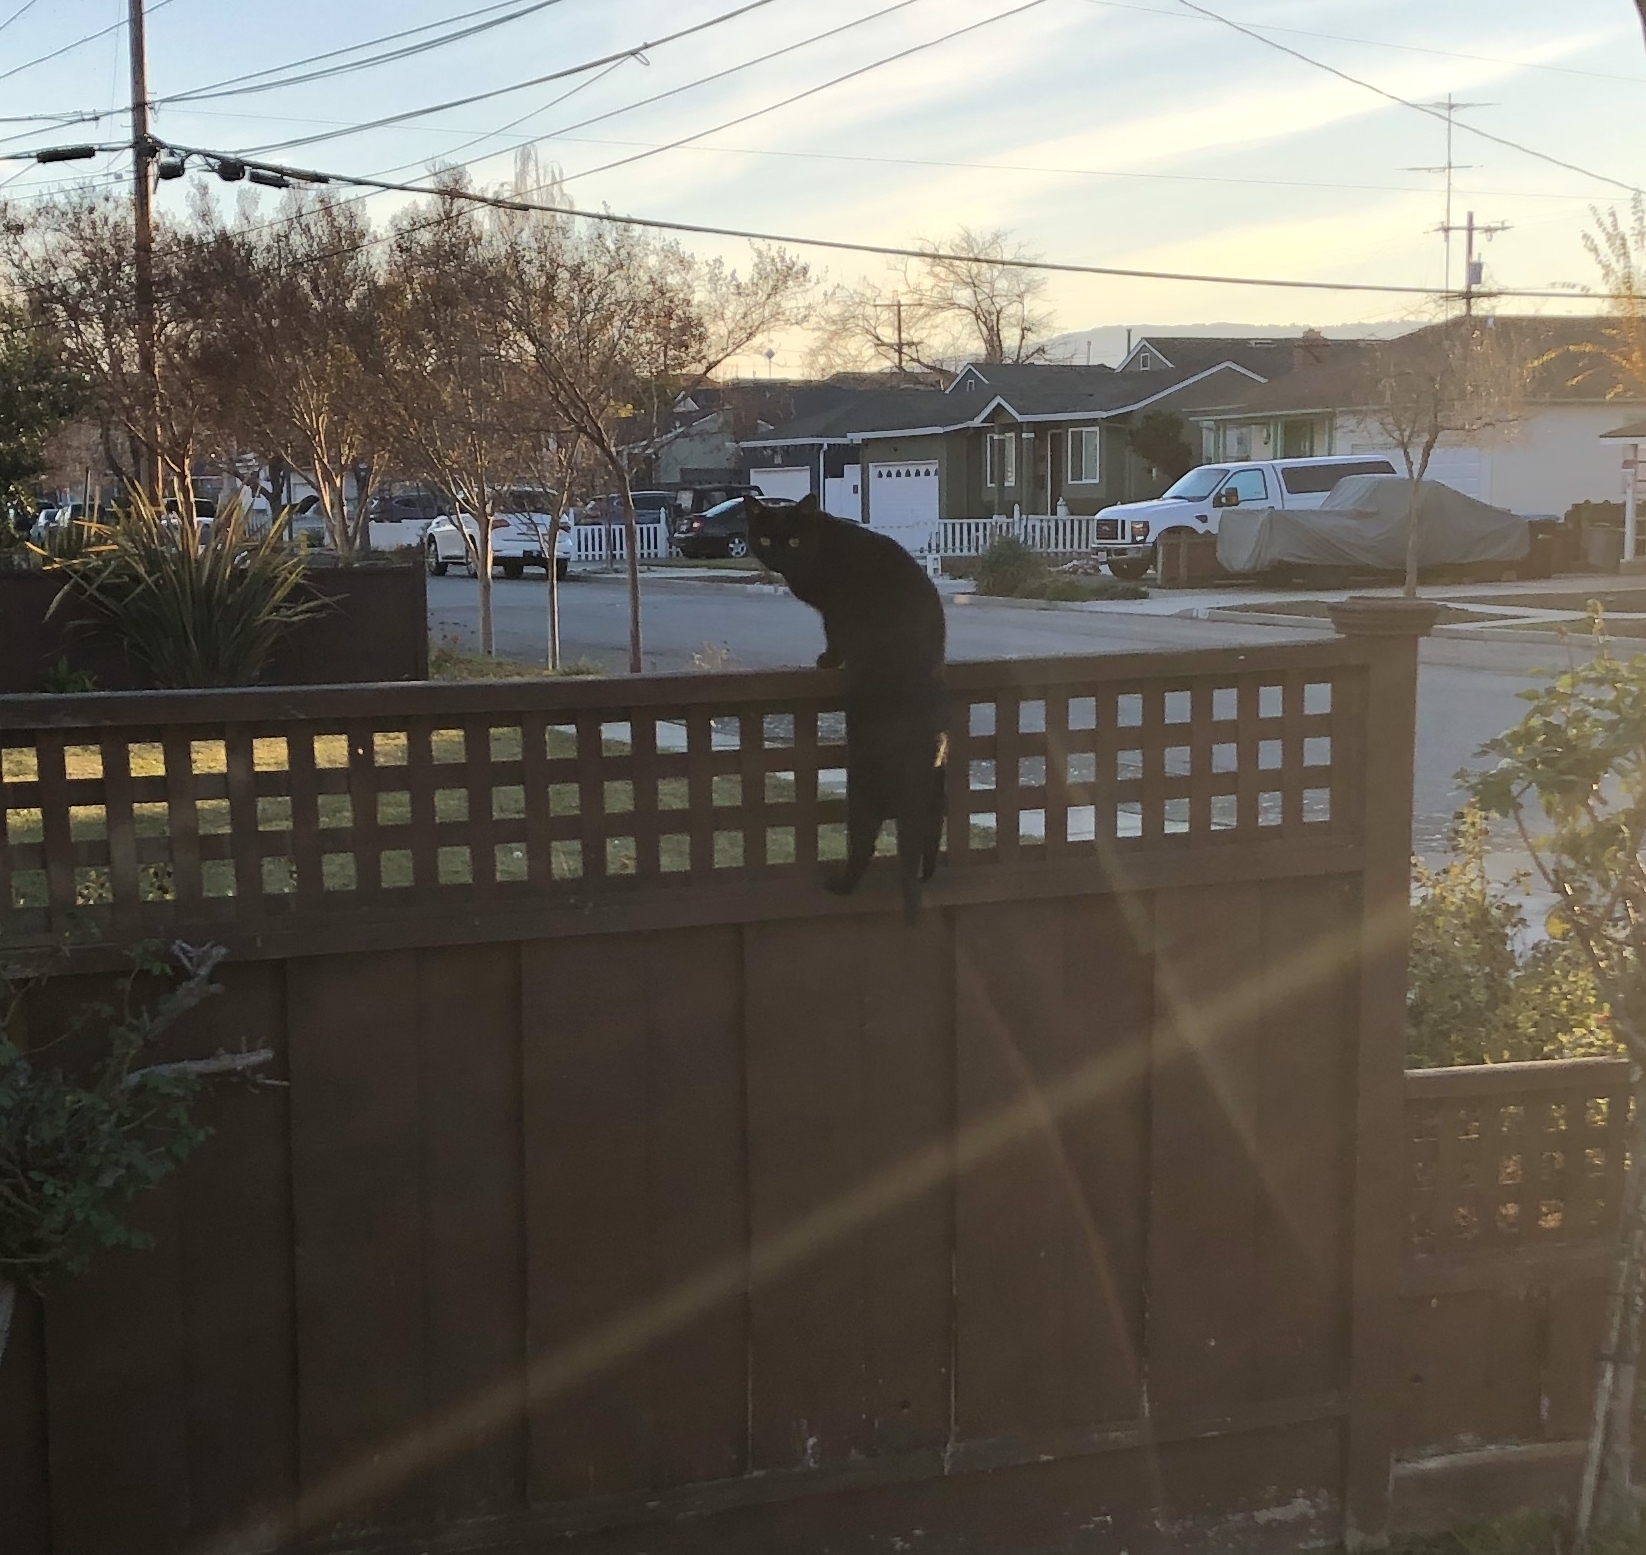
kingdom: Animalia
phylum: Chordata
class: Mammalia
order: Carnivora
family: Felidae
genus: Felis
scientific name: Felis catus
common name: Domestic cat
